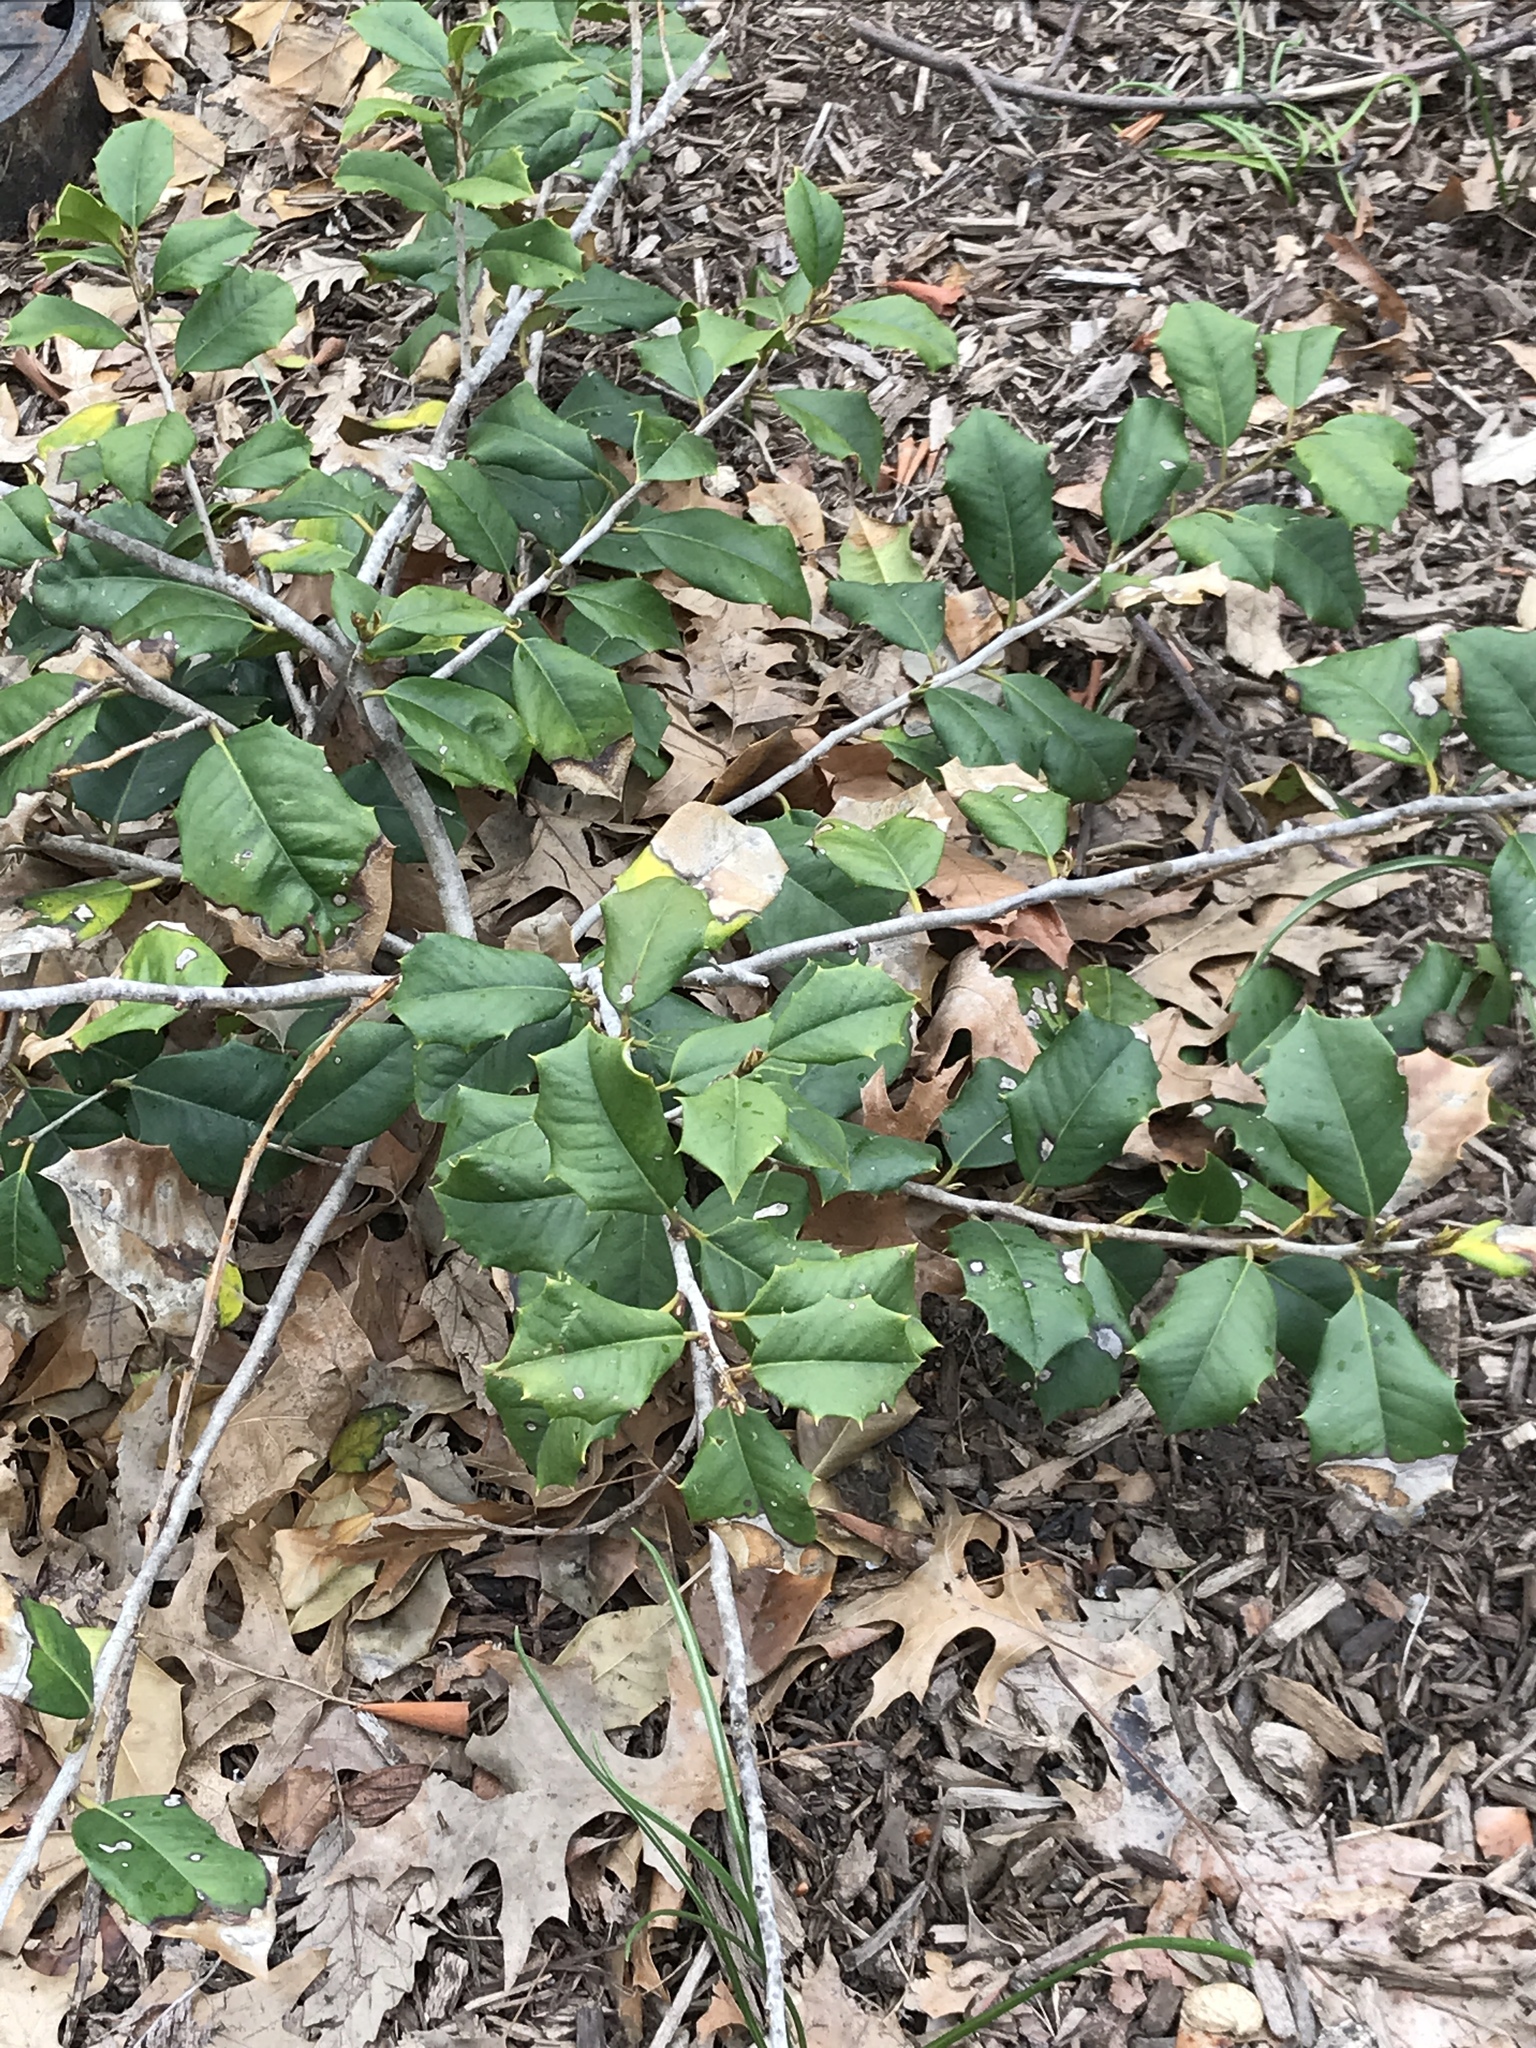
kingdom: Plantae
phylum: Tracheophyta
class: Magnoliopsida
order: Aquifoliales
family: Aquifoliaceae
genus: Ilex
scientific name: Ilex opaca
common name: American holly
